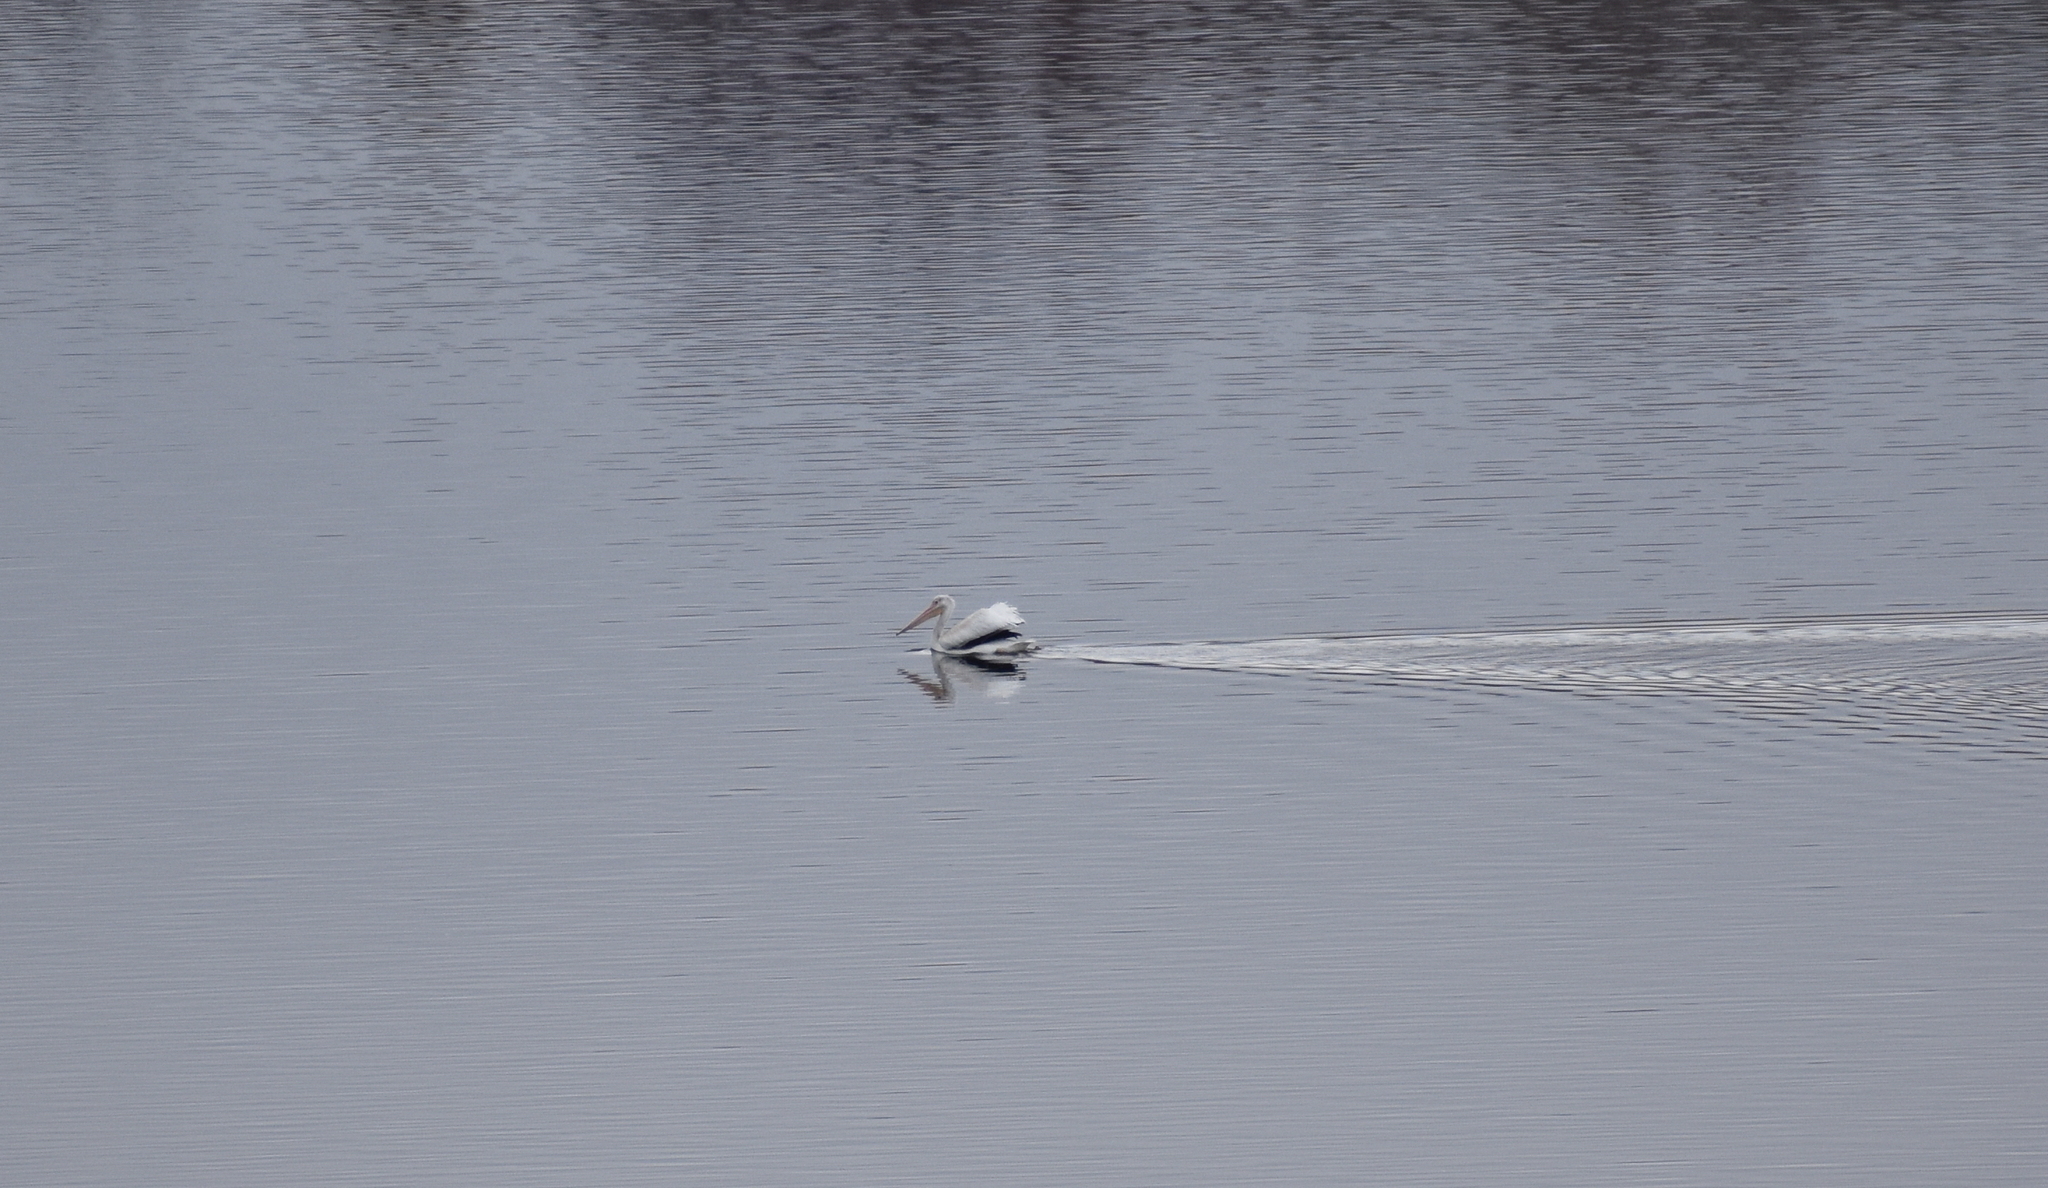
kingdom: Animalia
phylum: Chordata
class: Aves
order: Pelecaniformes
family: Pelecanidae
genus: Pelecanus
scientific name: Pelecanus erythrorhynchos
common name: American white pelican
